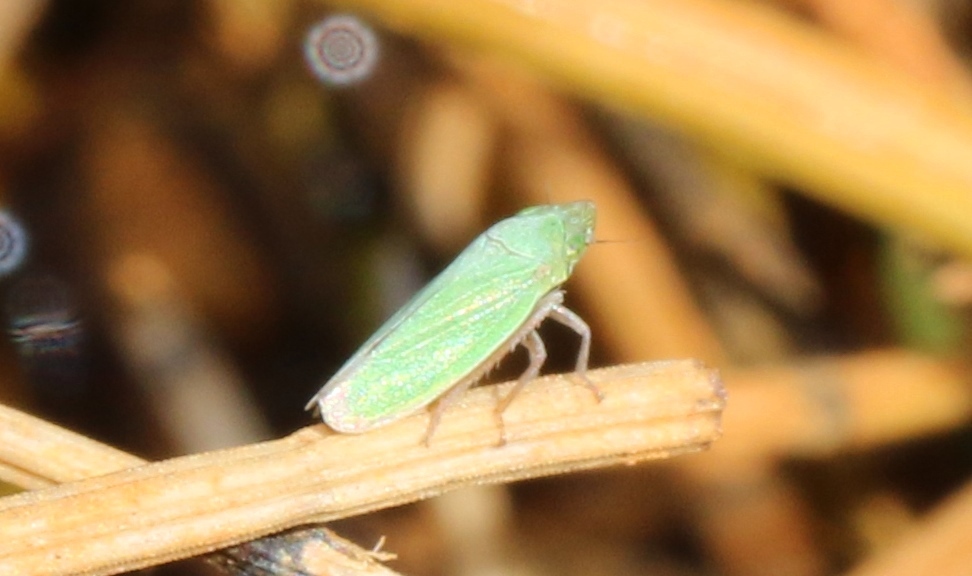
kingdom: Animalia
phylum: Arthropoda
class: Insecta
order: Hemiptera
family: Cicadellidae
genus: Helochara
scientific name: Helochara communis
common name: Bog leafhopper
